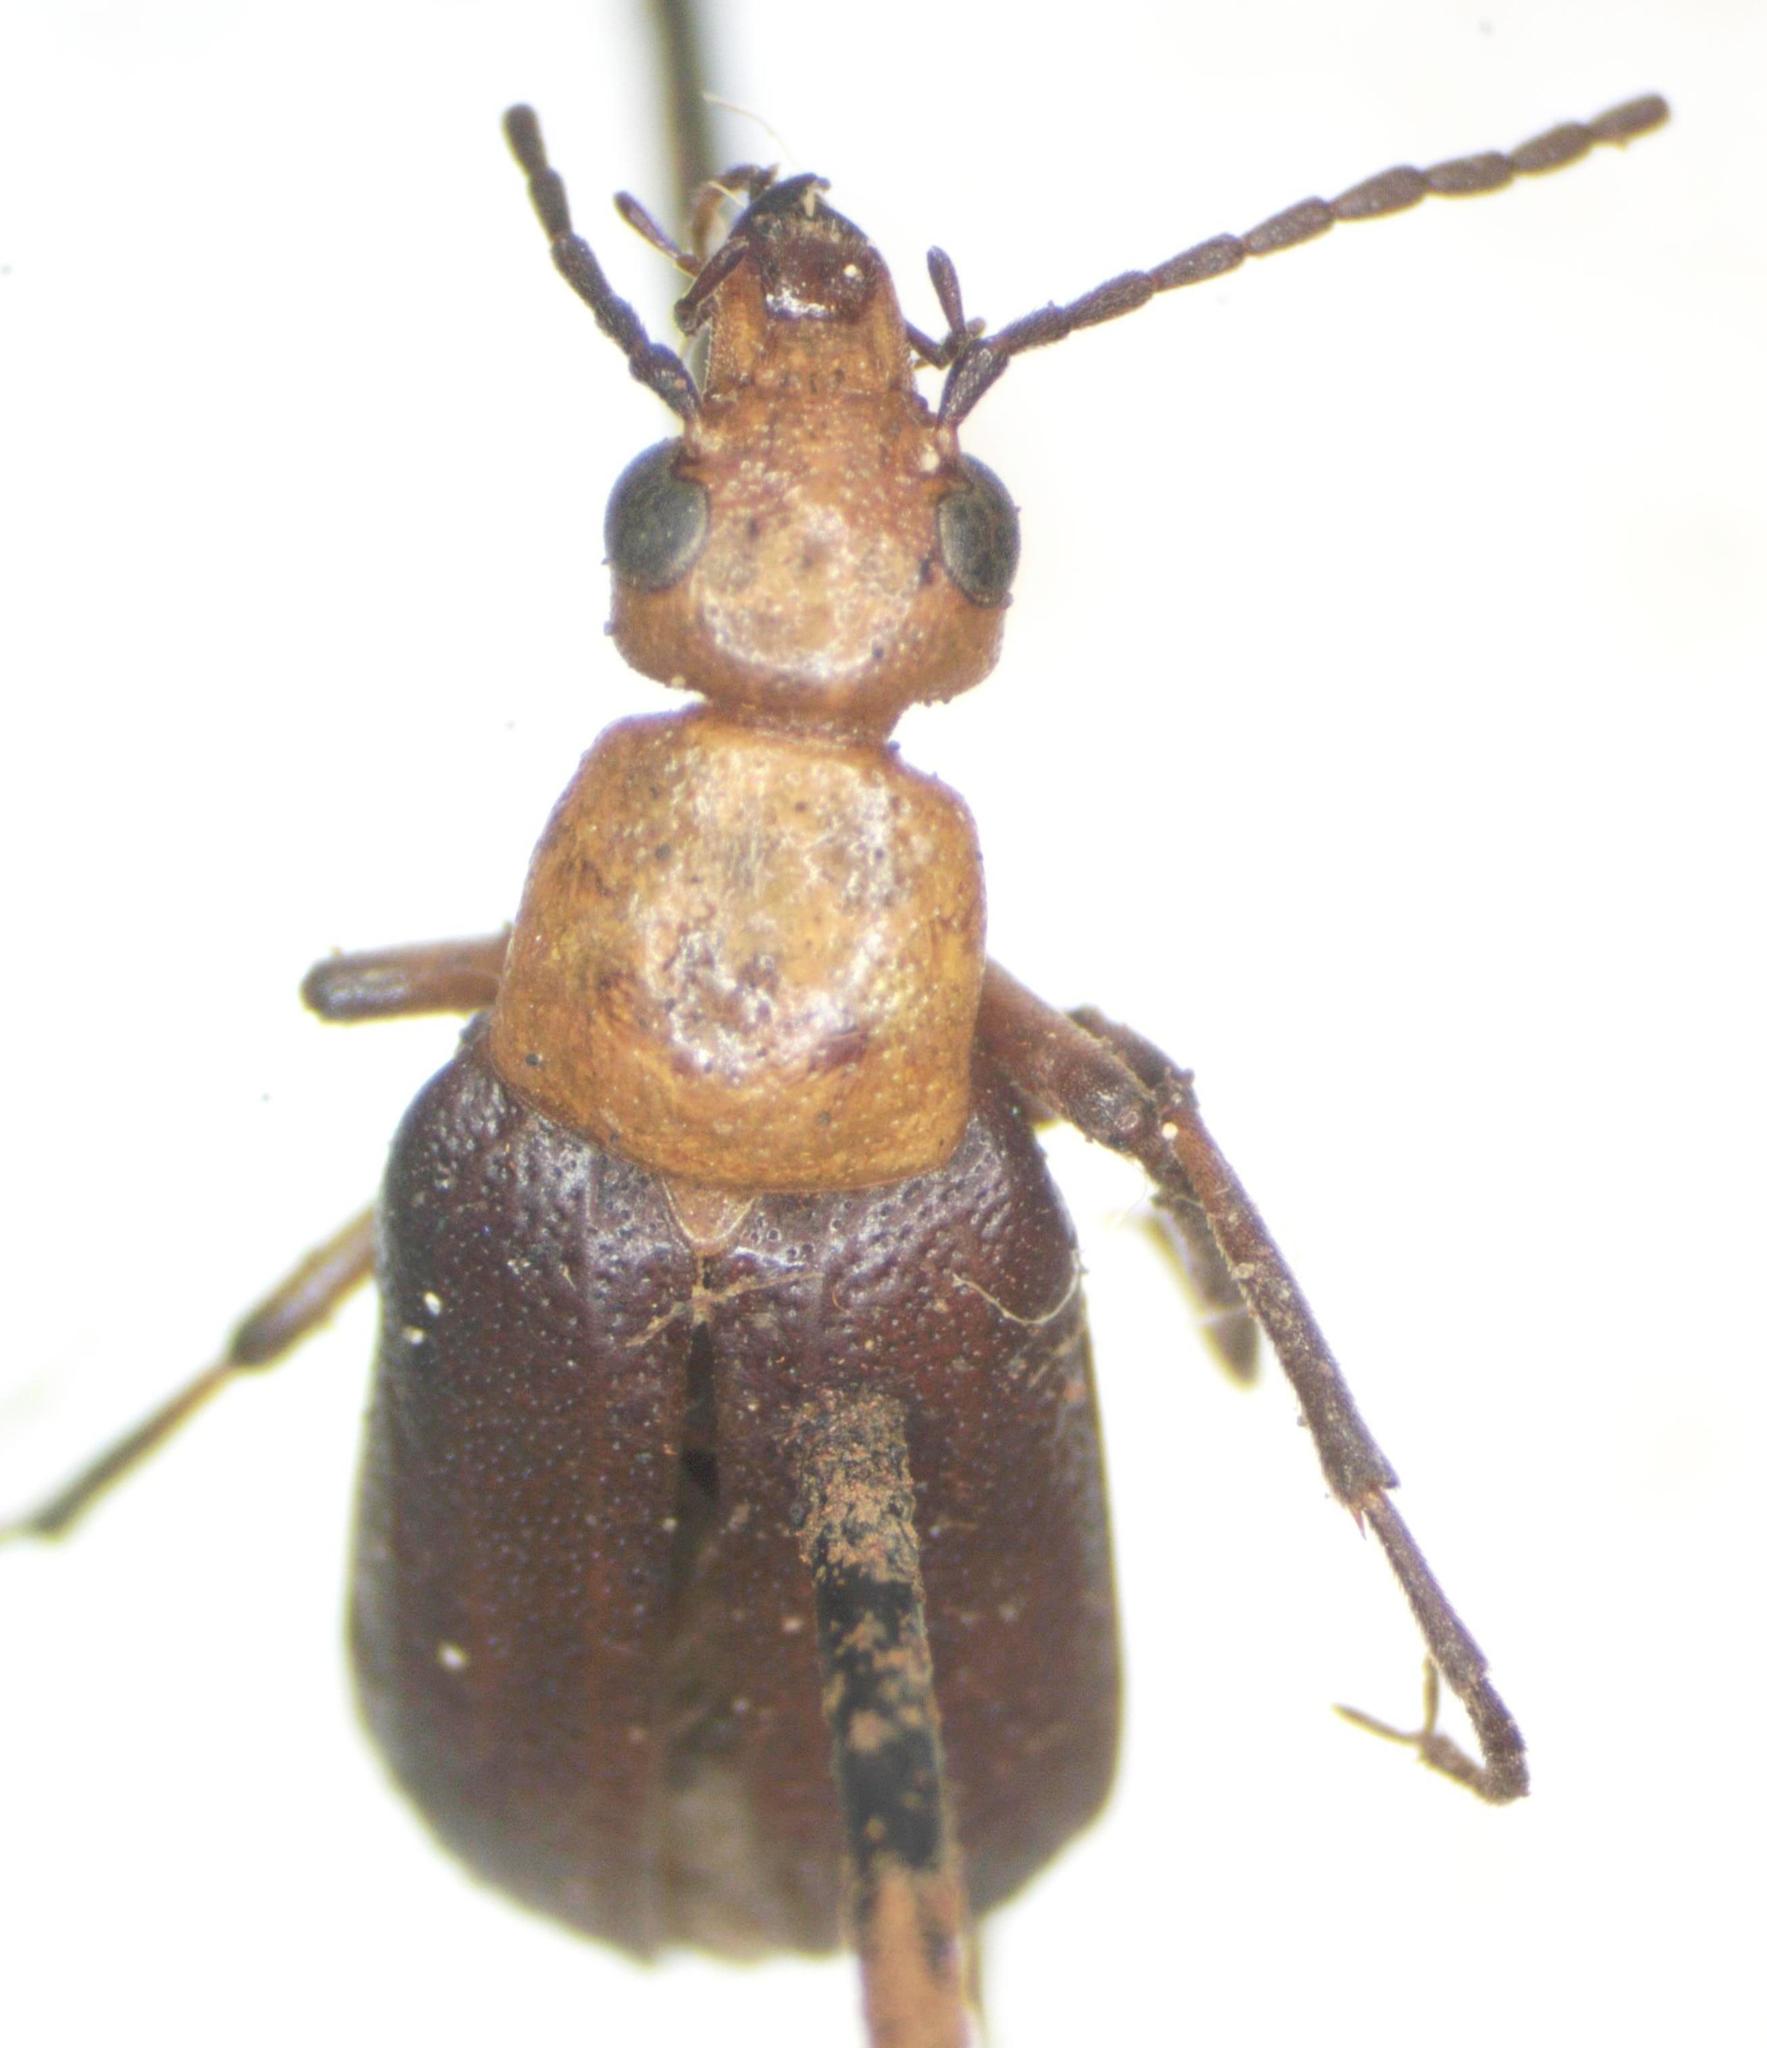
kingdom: Animalia
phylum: Arthropoda
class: Insecta
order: Coleoptera
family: Meloidae
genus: Rhyphonemognatha
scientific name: Rhyphonemognatha
